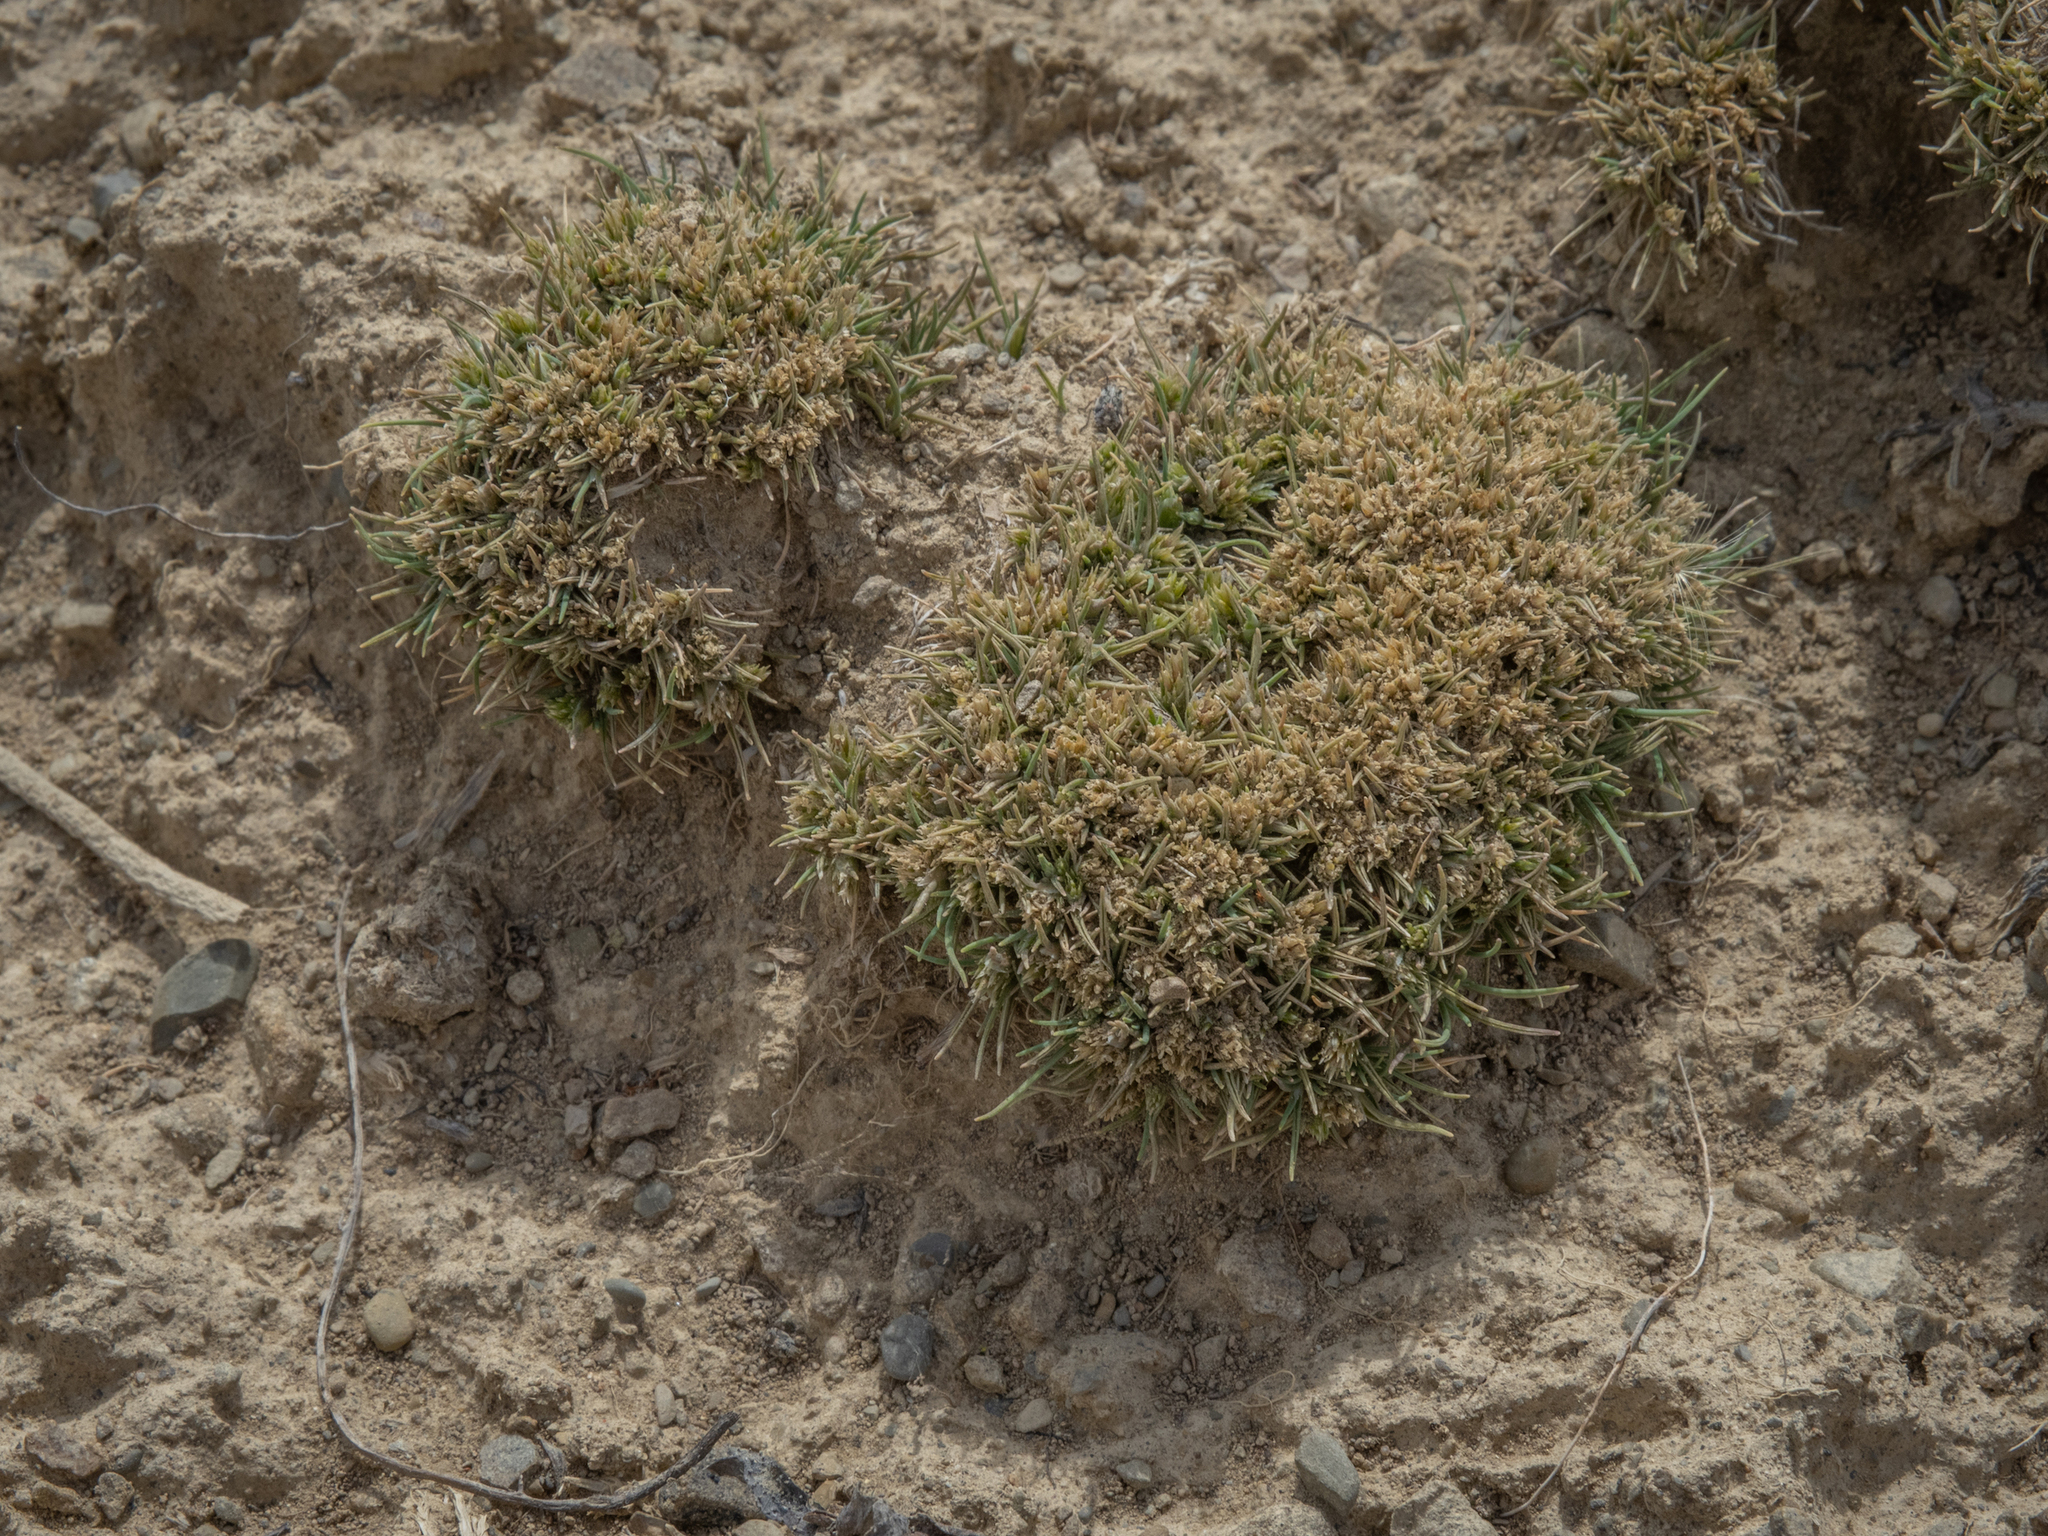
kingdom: Plantae
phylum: Tracheophyta
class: Liliopsida
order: Poales
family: Poaceae
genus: Agrostis
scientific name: Agrostis muscosa
